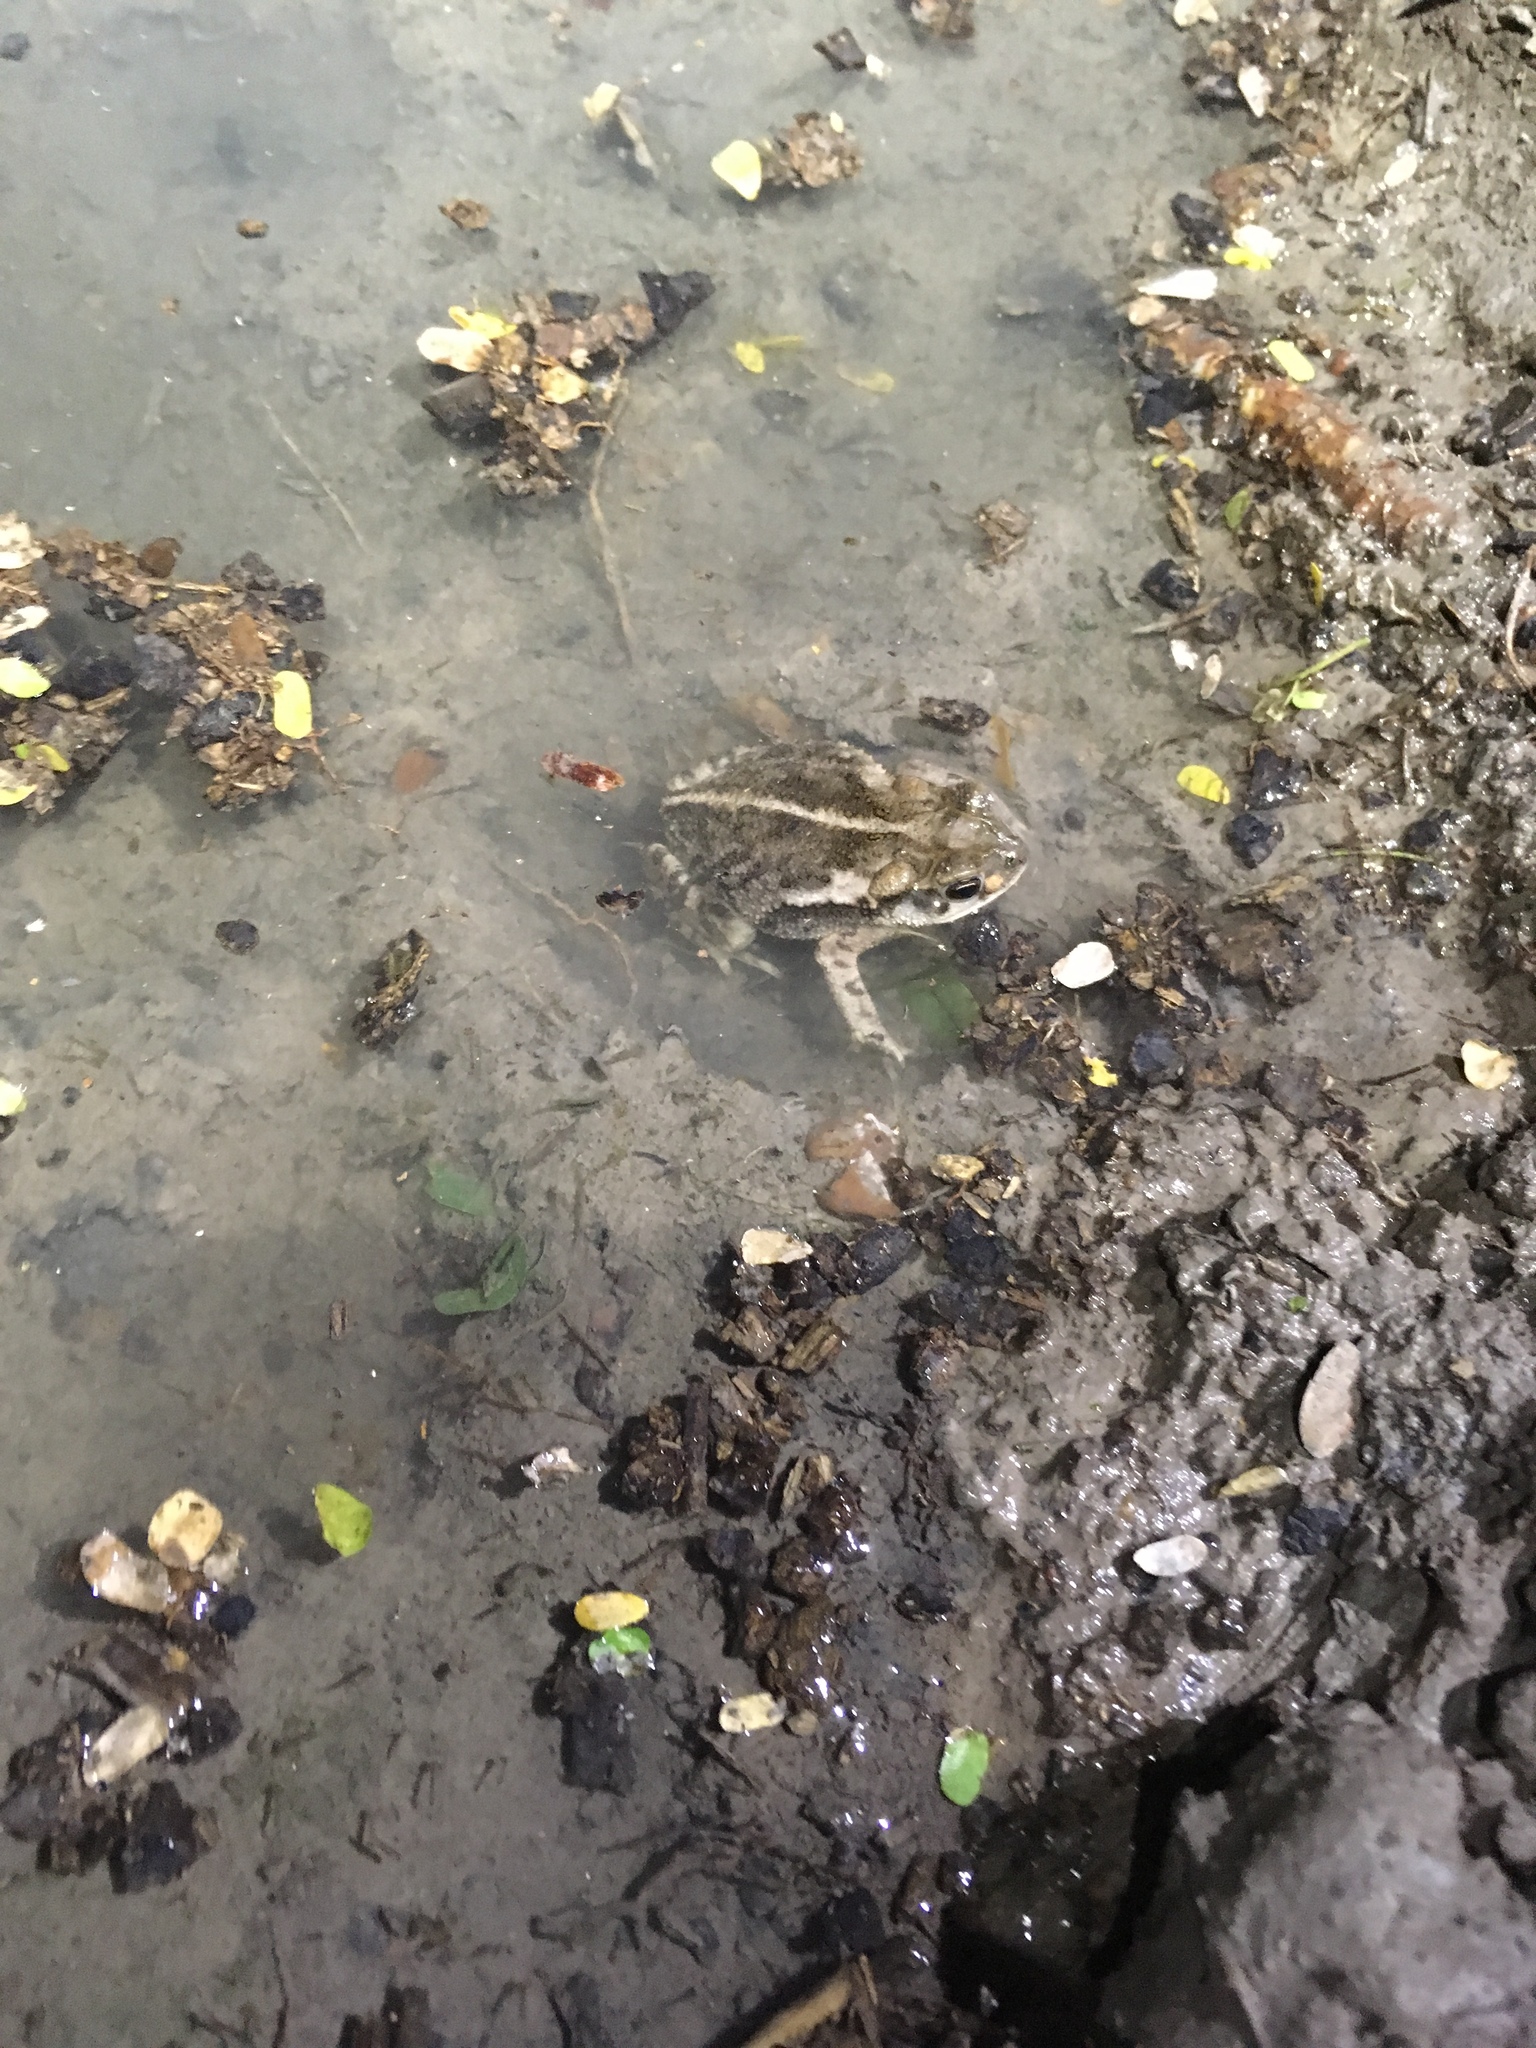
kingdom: Animalia
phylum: Chordata
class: Amphibia
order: Anura
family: Bufonidae
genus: Incilius
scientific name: Incilius nebulifer
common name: Gulf coast toad
